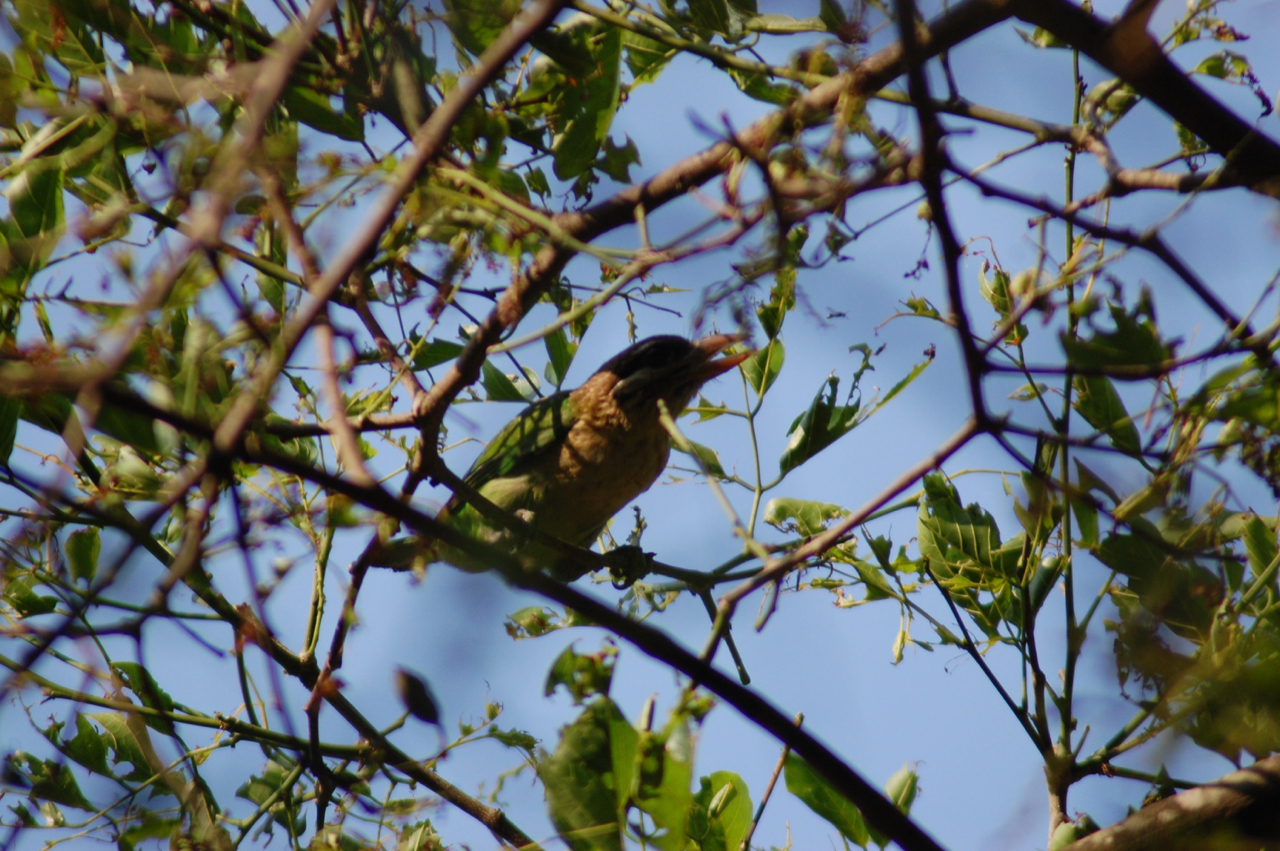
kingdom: Animalia
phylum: Chordata
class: Aves
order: Piciformes
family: Megalaimidae
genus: Psilopogon
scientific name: Psilopogon viridis
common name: White-cheeked barbet
